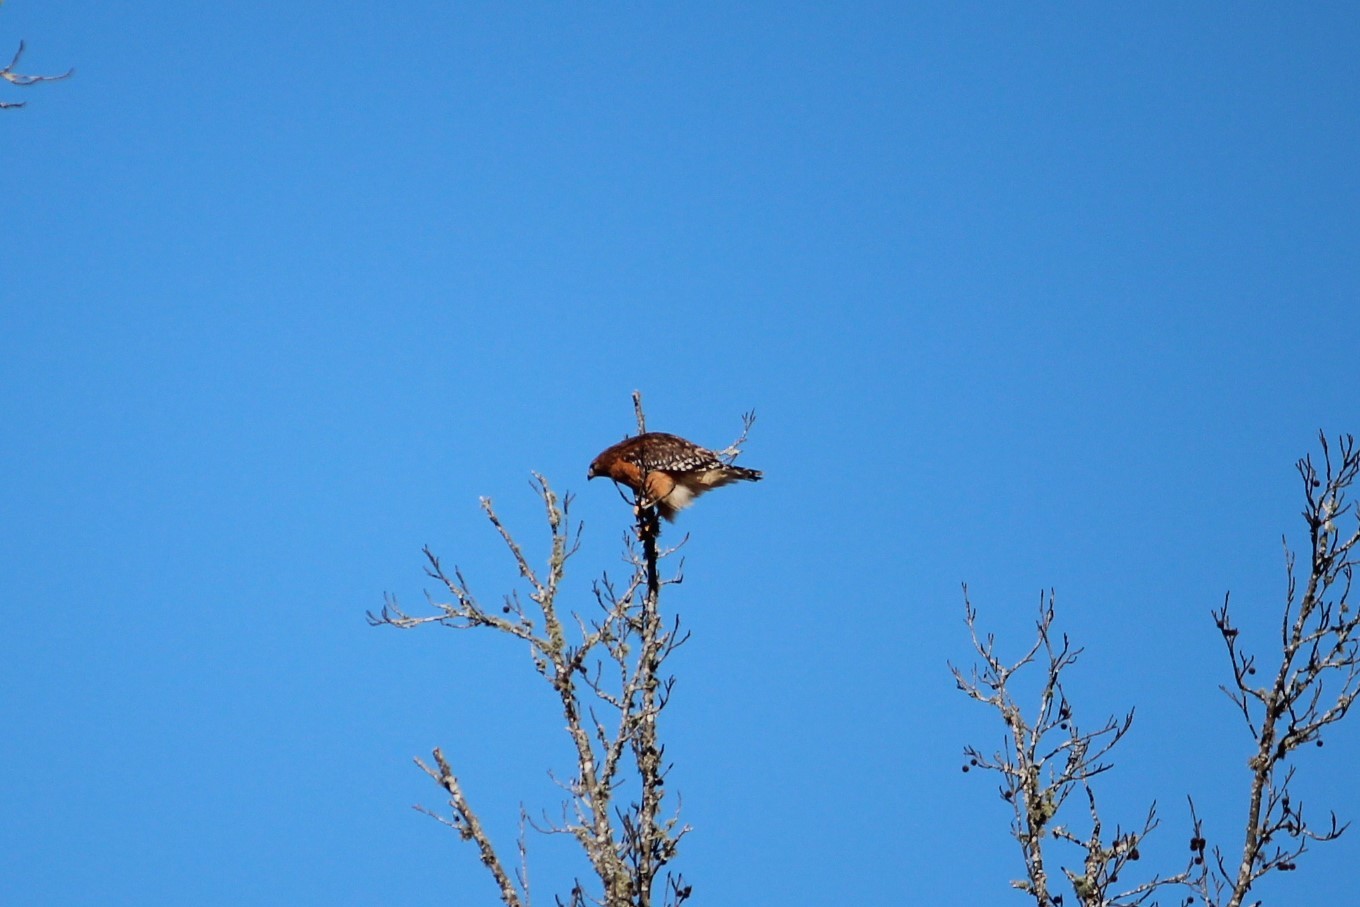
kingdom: Animalia
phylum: Chordata
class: Aves
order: Accipitriformes
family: Accipitridae
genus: Buteo
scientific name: Buteo lineatus
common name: Red-shouldered hawk
